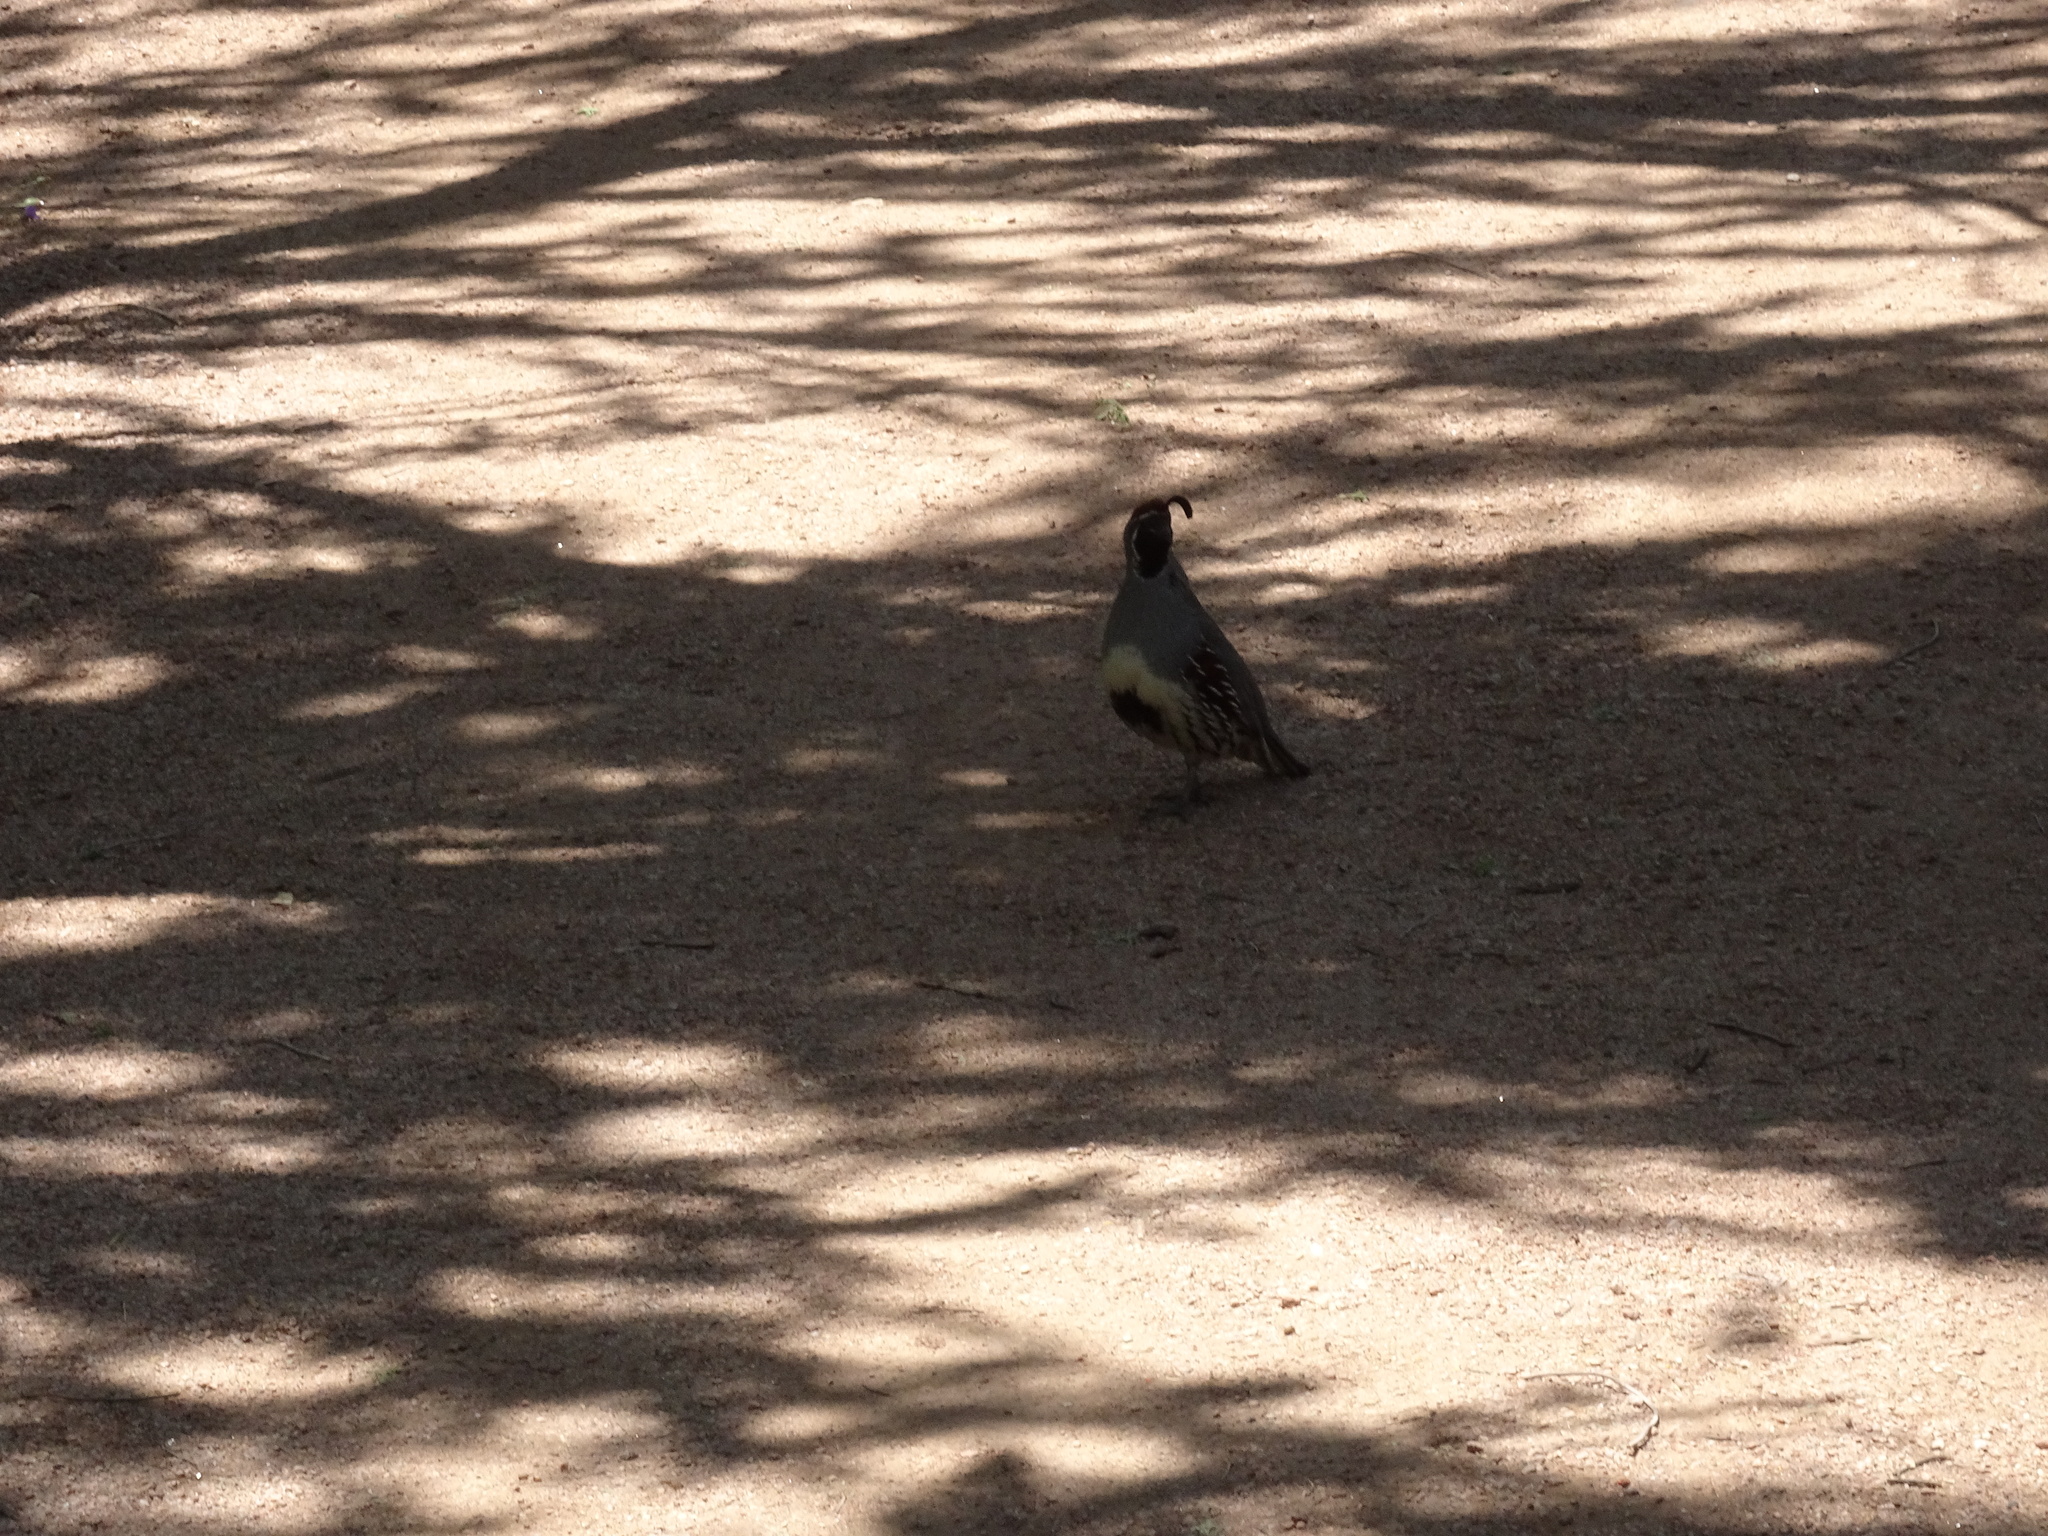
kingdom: Animalia
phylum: Chordata
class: Aves
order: Galliformes
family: Odontophoridae
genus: Callipepla
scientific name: Callipepla gambelii
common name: Gambel's quail
